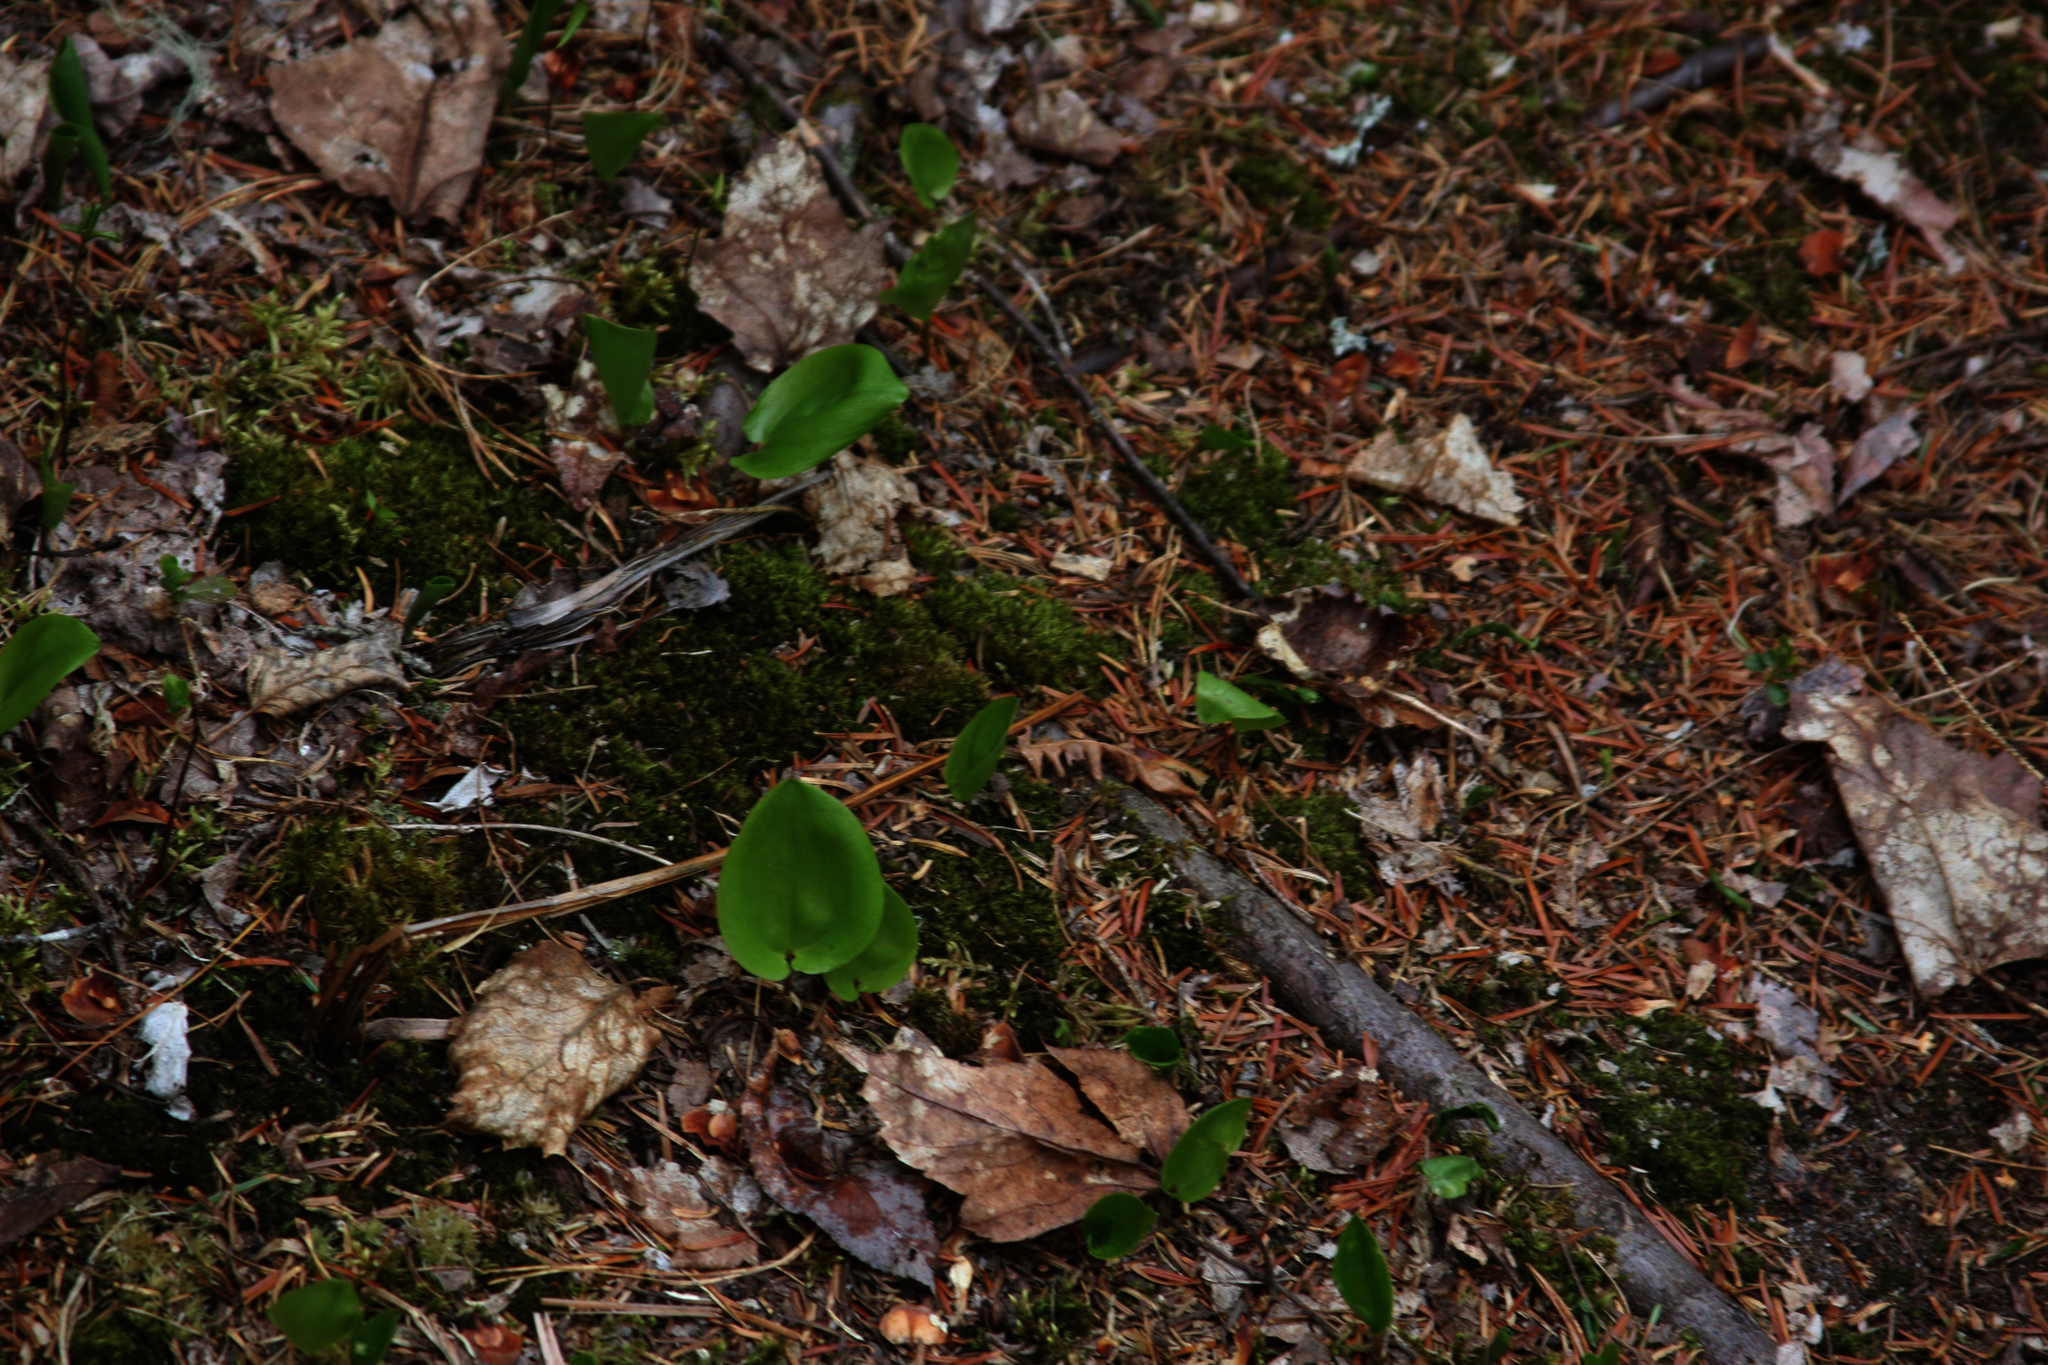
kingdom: Plantae
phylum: Tracheophyta
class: Liliopsida
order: Asparagales
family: Asparagaceae
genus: Maianthemum
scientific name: Maianthemum canadense
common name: False lily-of-the-valley
